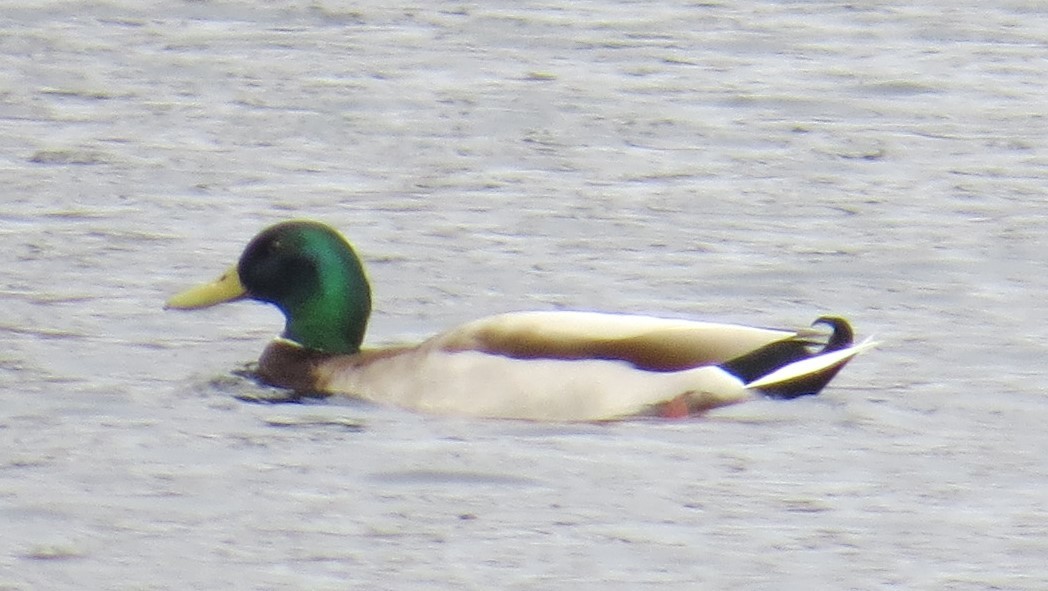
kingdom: Animalia
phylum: Chordata
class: Aves
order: Anseriformes
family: Anatidae
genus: Anas
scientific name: Anas platyrhynchos
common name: Mallard
